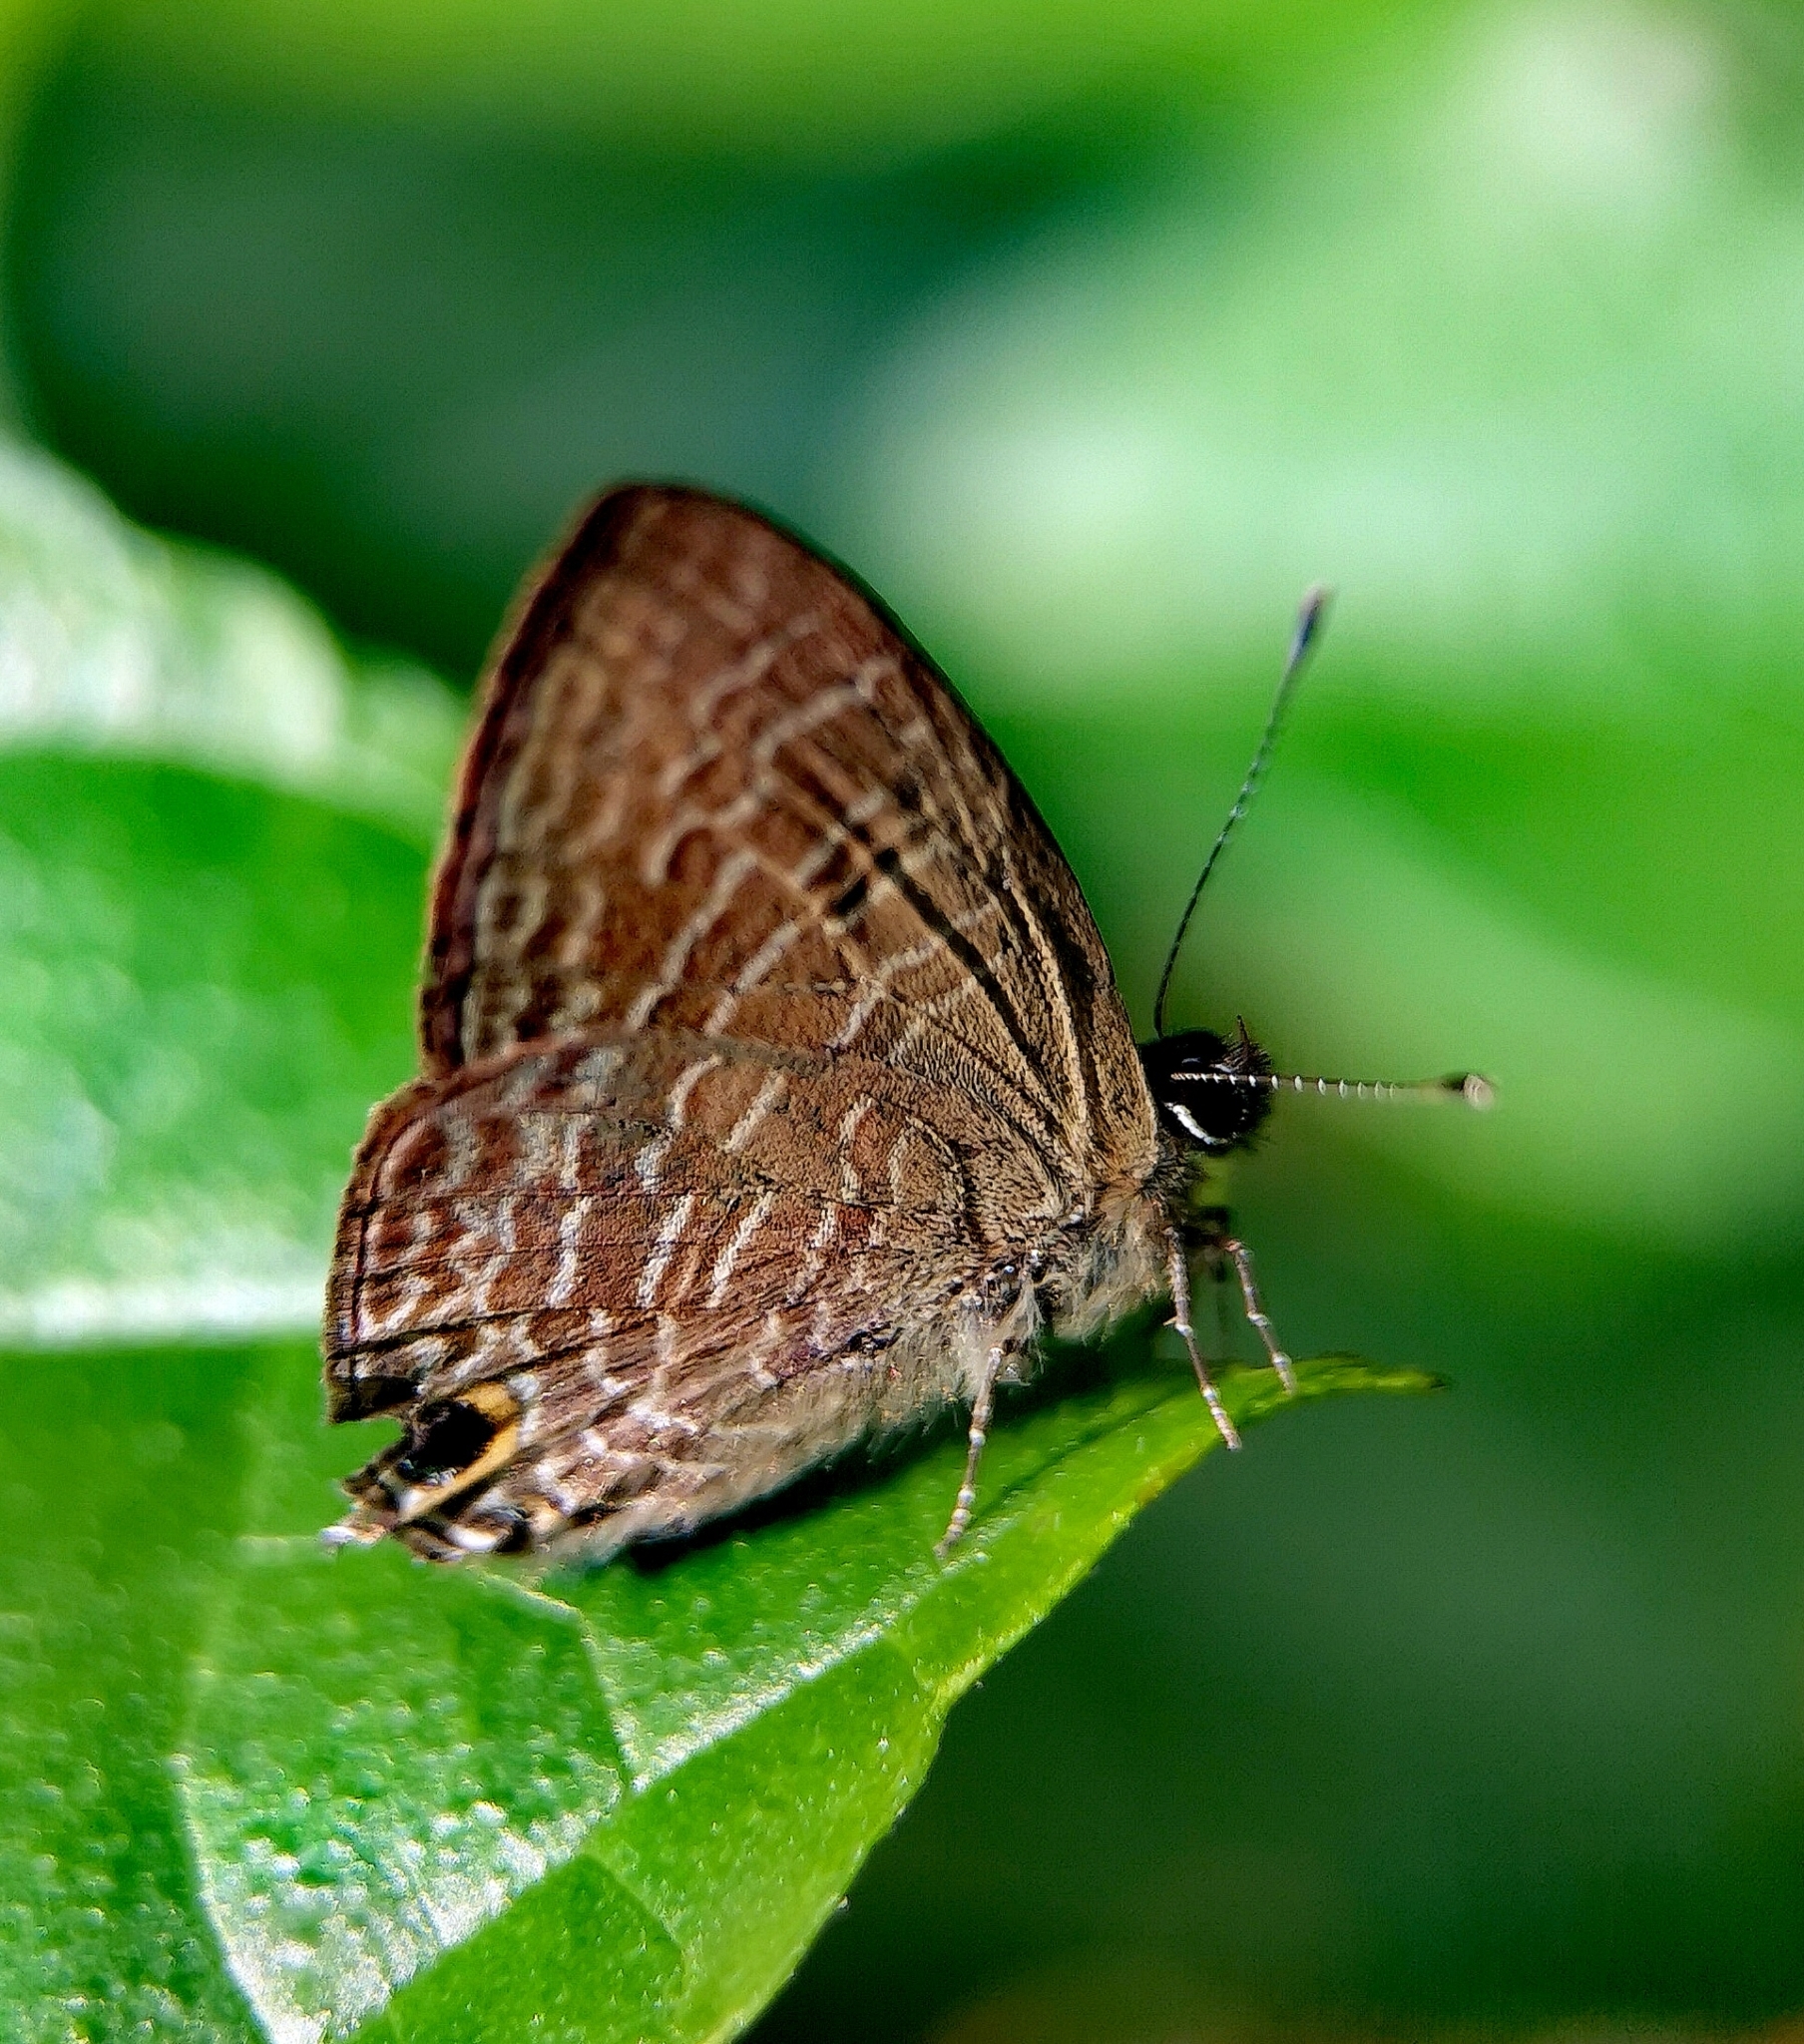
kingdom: Animalia
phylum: Arthropoda
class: Insecta
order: Lepidoptera
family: Lycaenidae
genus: Ionolyce
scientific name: Ionolyce helicon
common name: Pointed line blue
